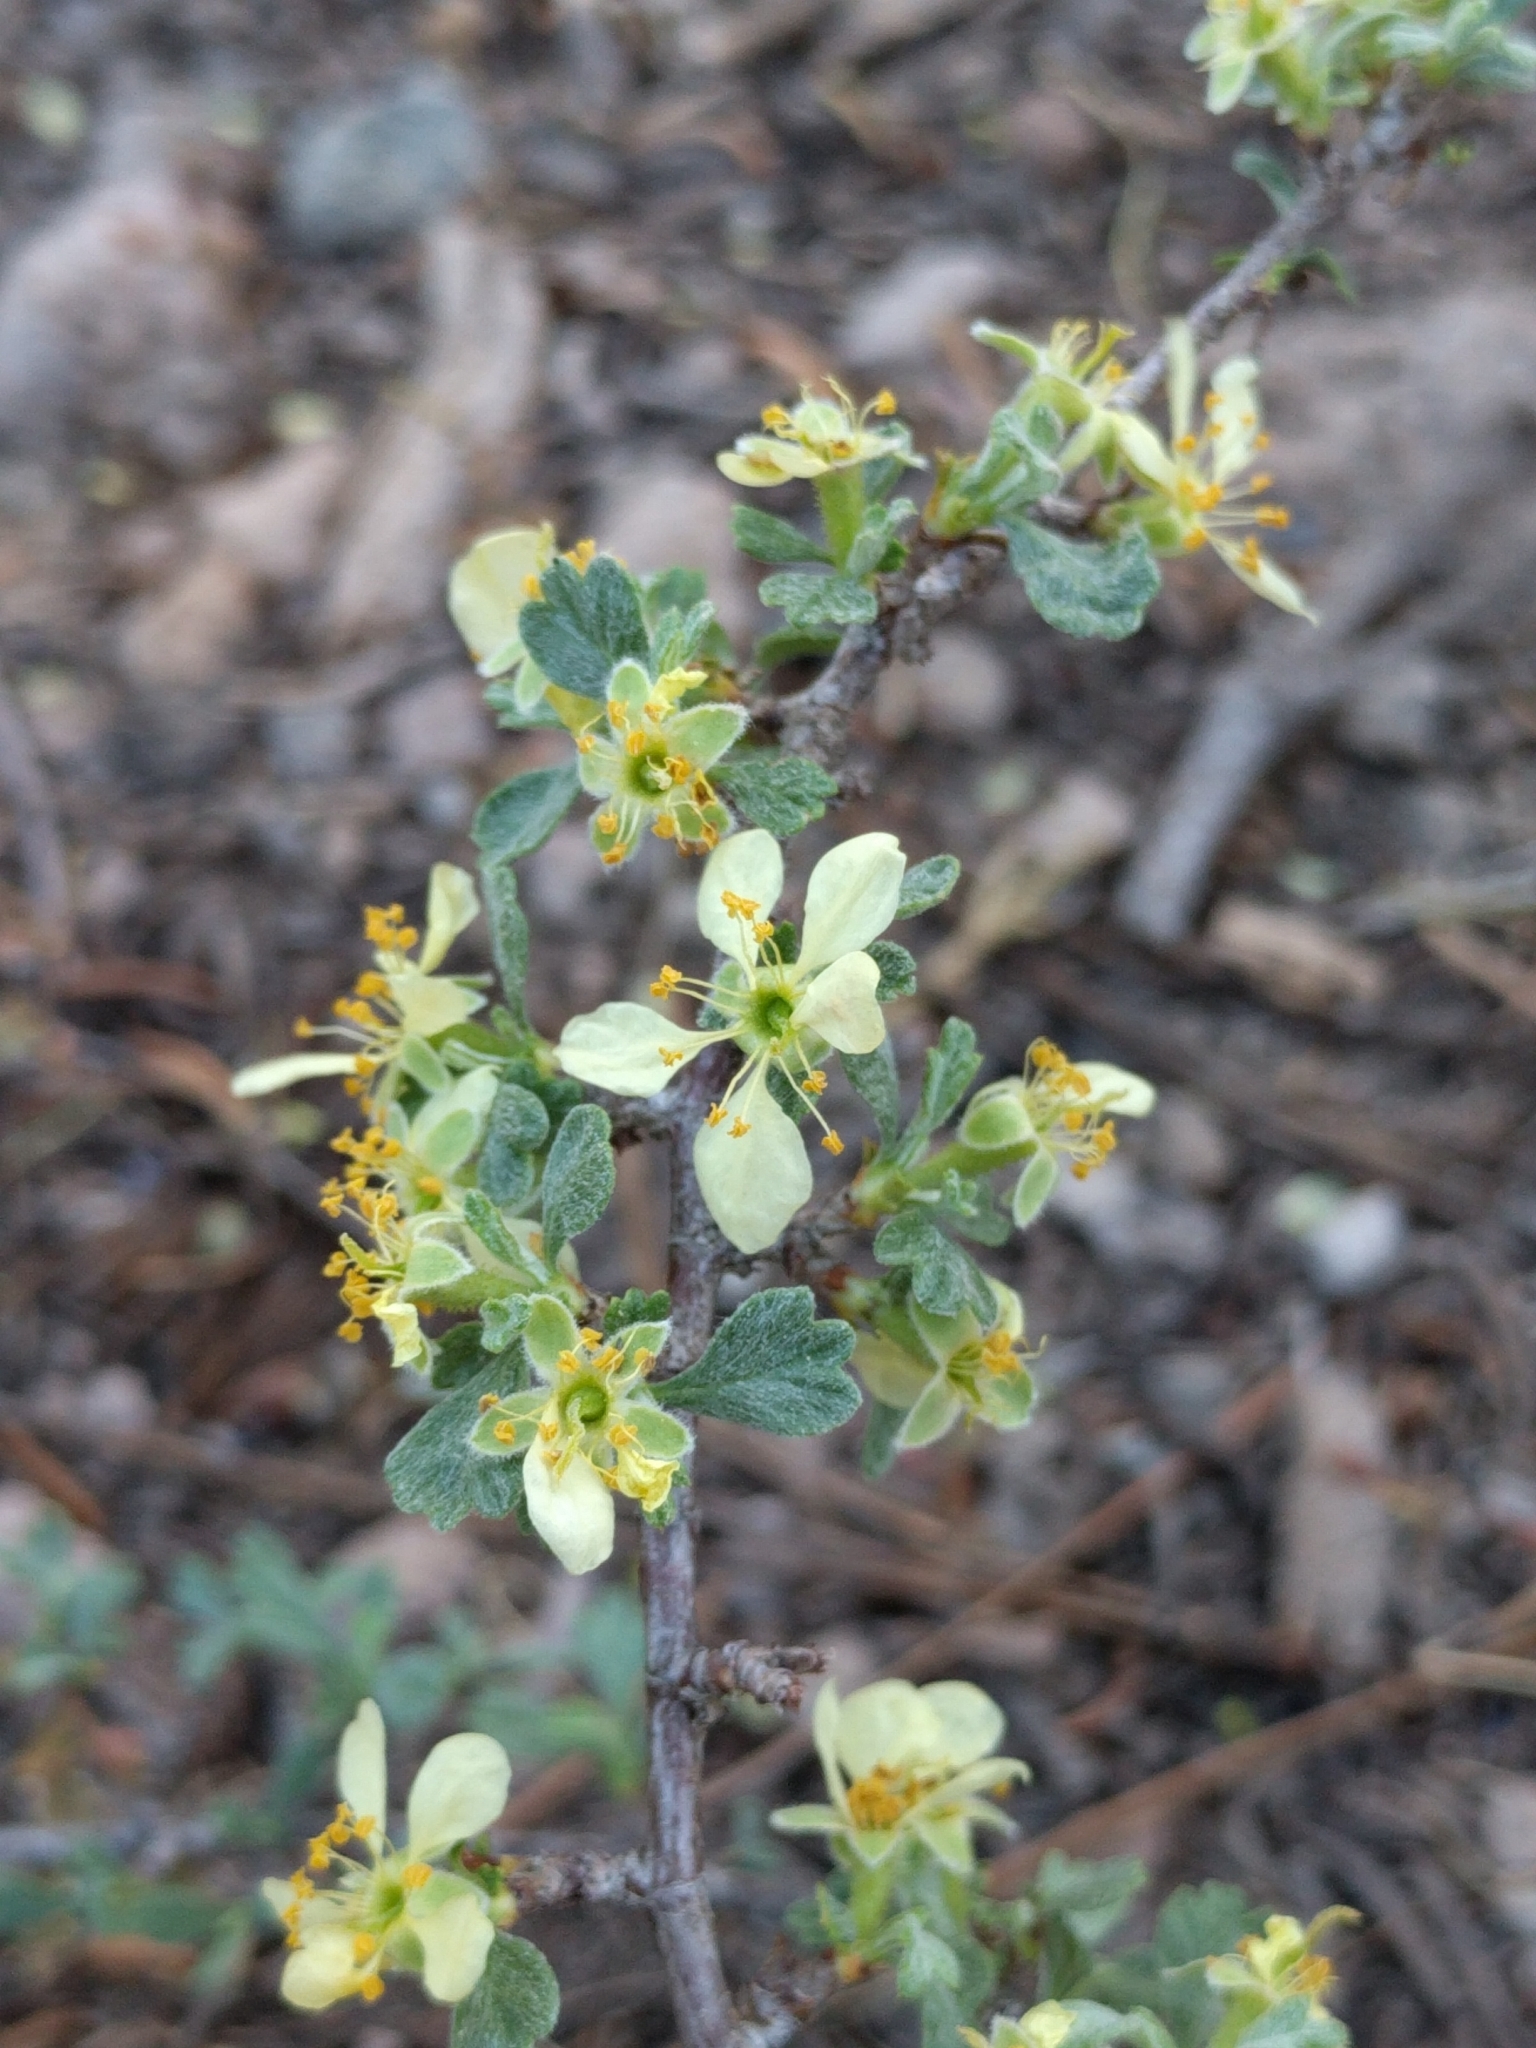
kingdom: Plantae
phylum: Tracheophyta
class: Magnoliopsida
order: Rosales
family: Rosaceae
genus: Purshia
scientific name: Purshia tridentata
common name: Antelope bitterbrush
